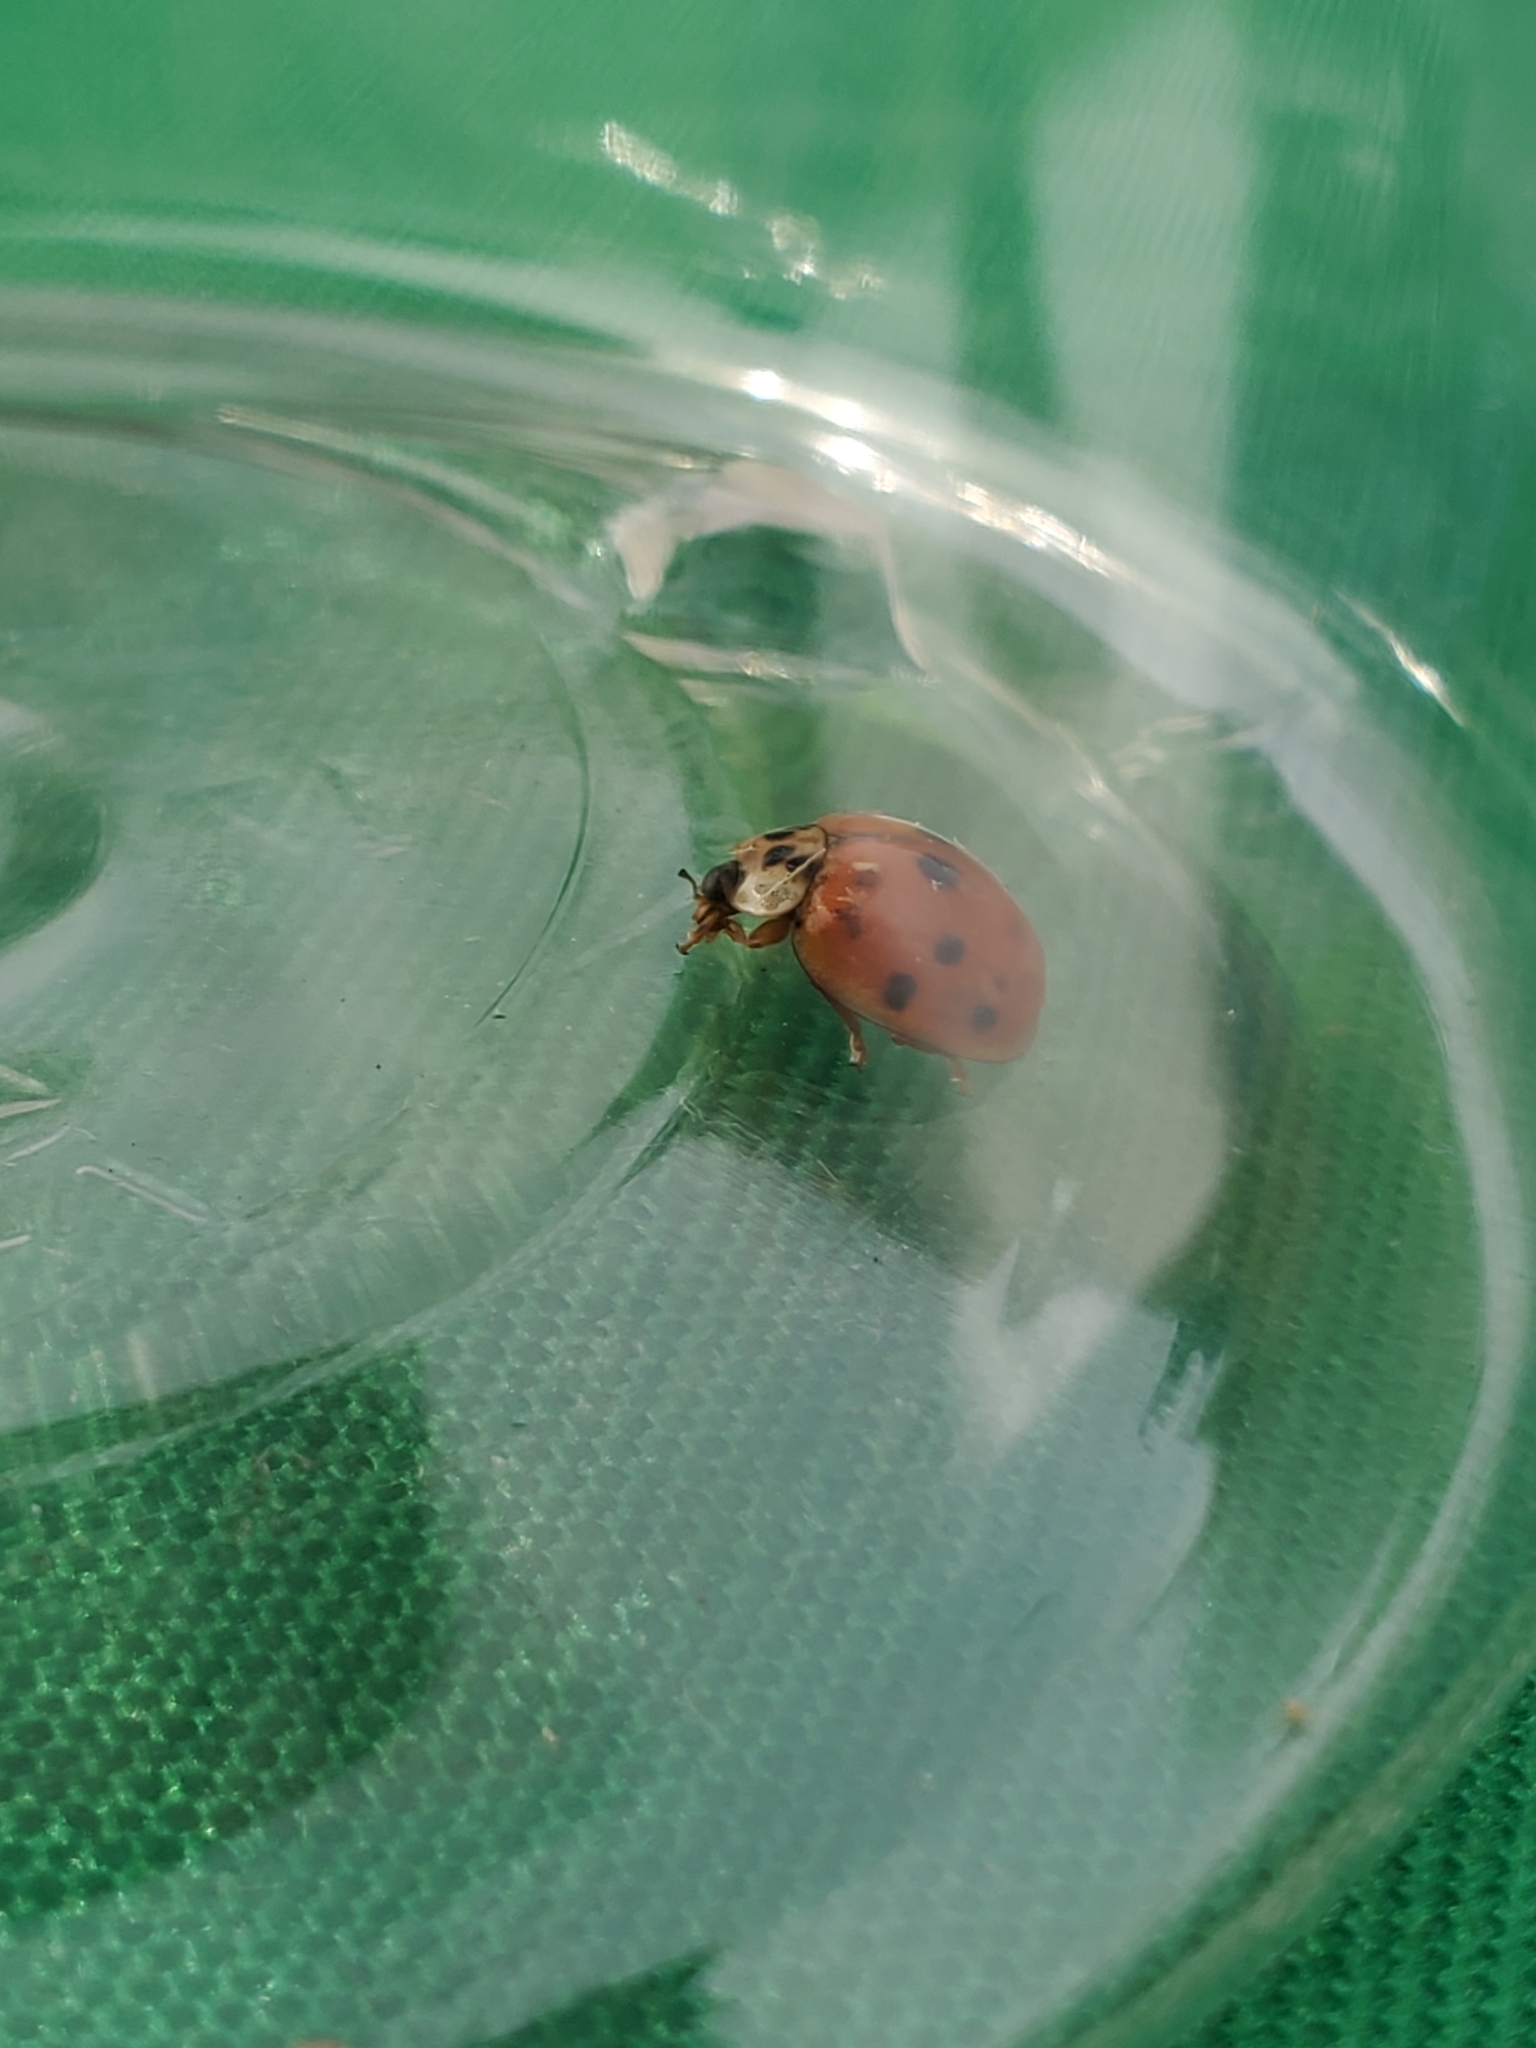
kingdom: Animalia
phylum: Arthropoda
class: Insecta
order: Coleoptera
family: Coccinellidae
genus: Harmonia
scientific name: Harmonia axyridis
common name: Harlequin ladybird
